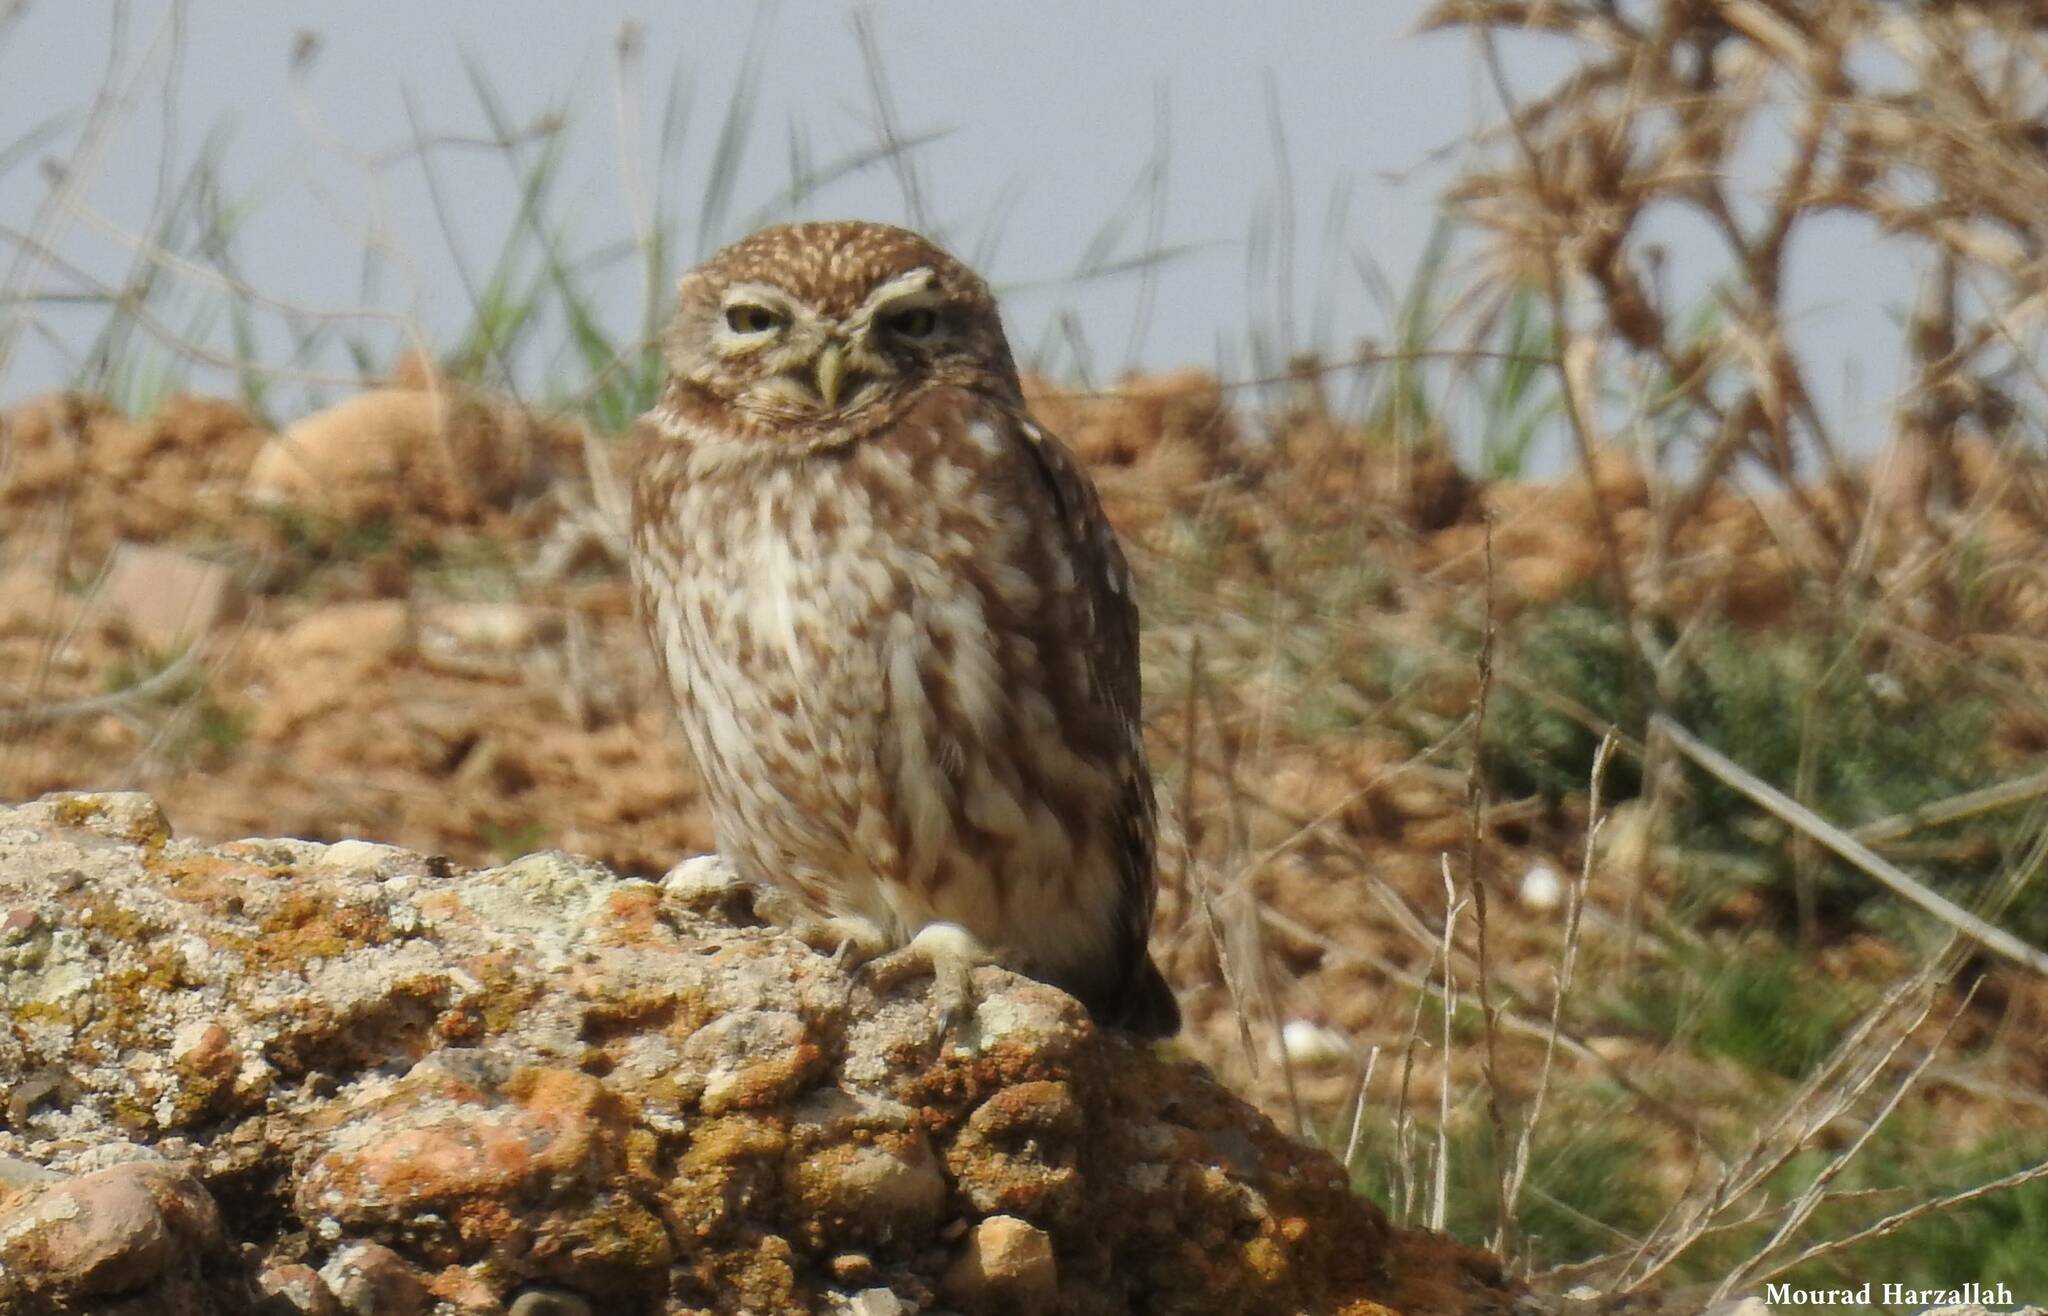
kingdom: Animalia
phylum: Chordata
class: Aves
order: Strigiformes
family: Strigidae
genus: Athene
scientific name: Athene noctua
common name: Little owl
